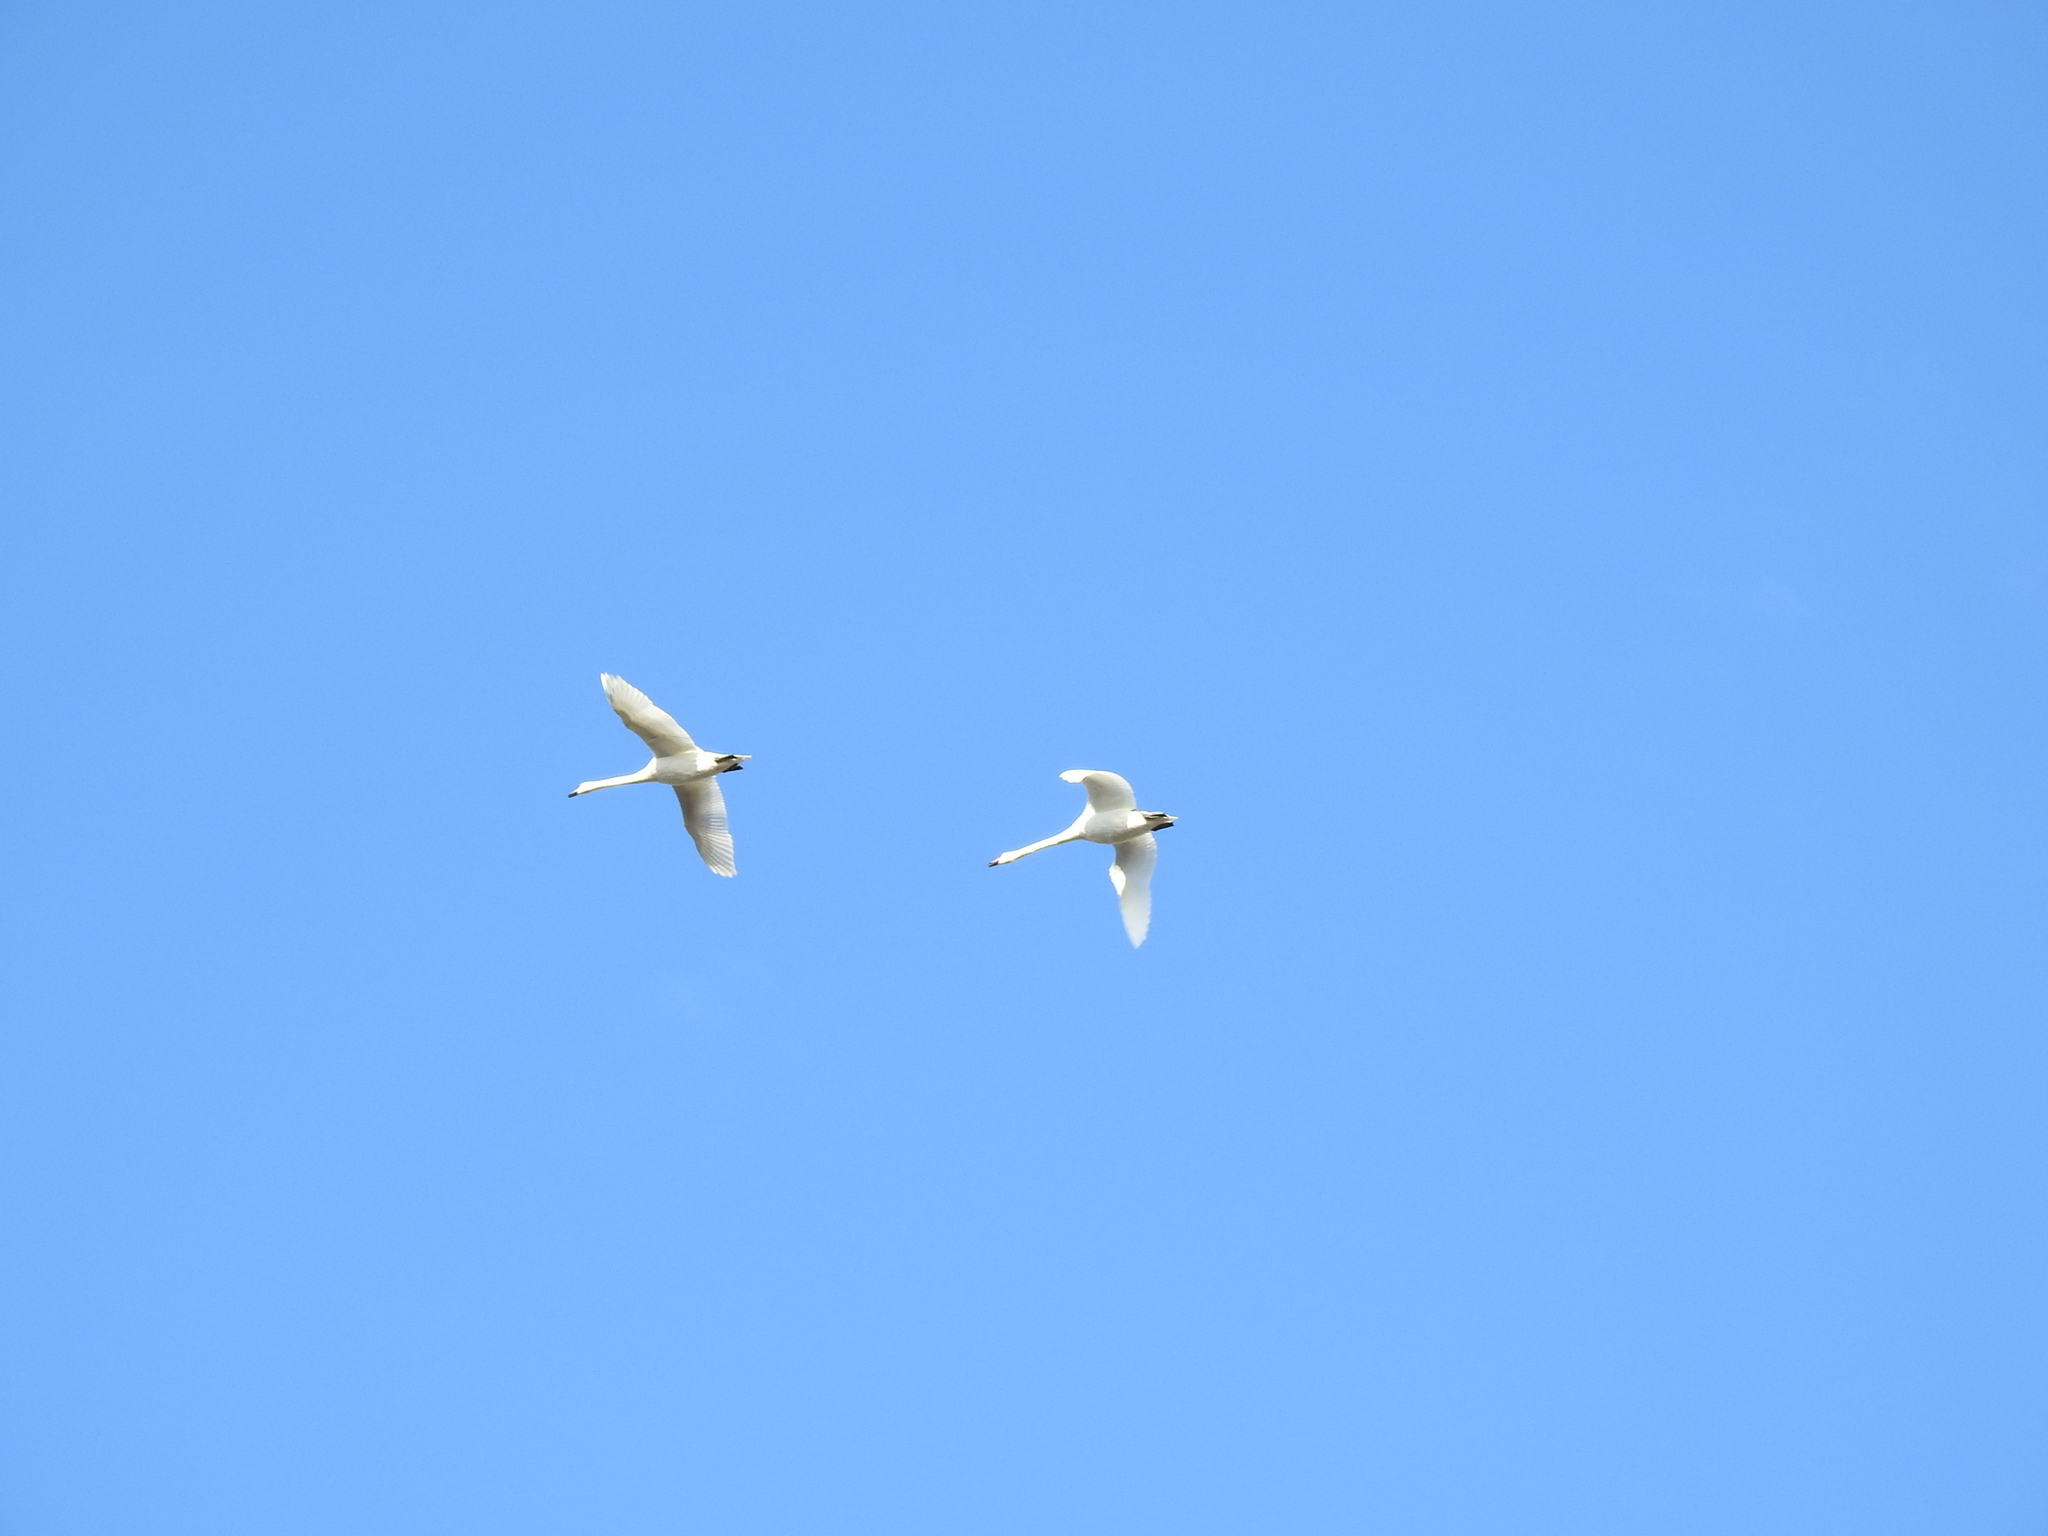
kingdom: Animalia
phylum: Chordata
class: Aves
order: Anseriformes
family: Anatidae
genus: Cygnus
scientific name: Cygnus cygnus
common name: Whooper swan
